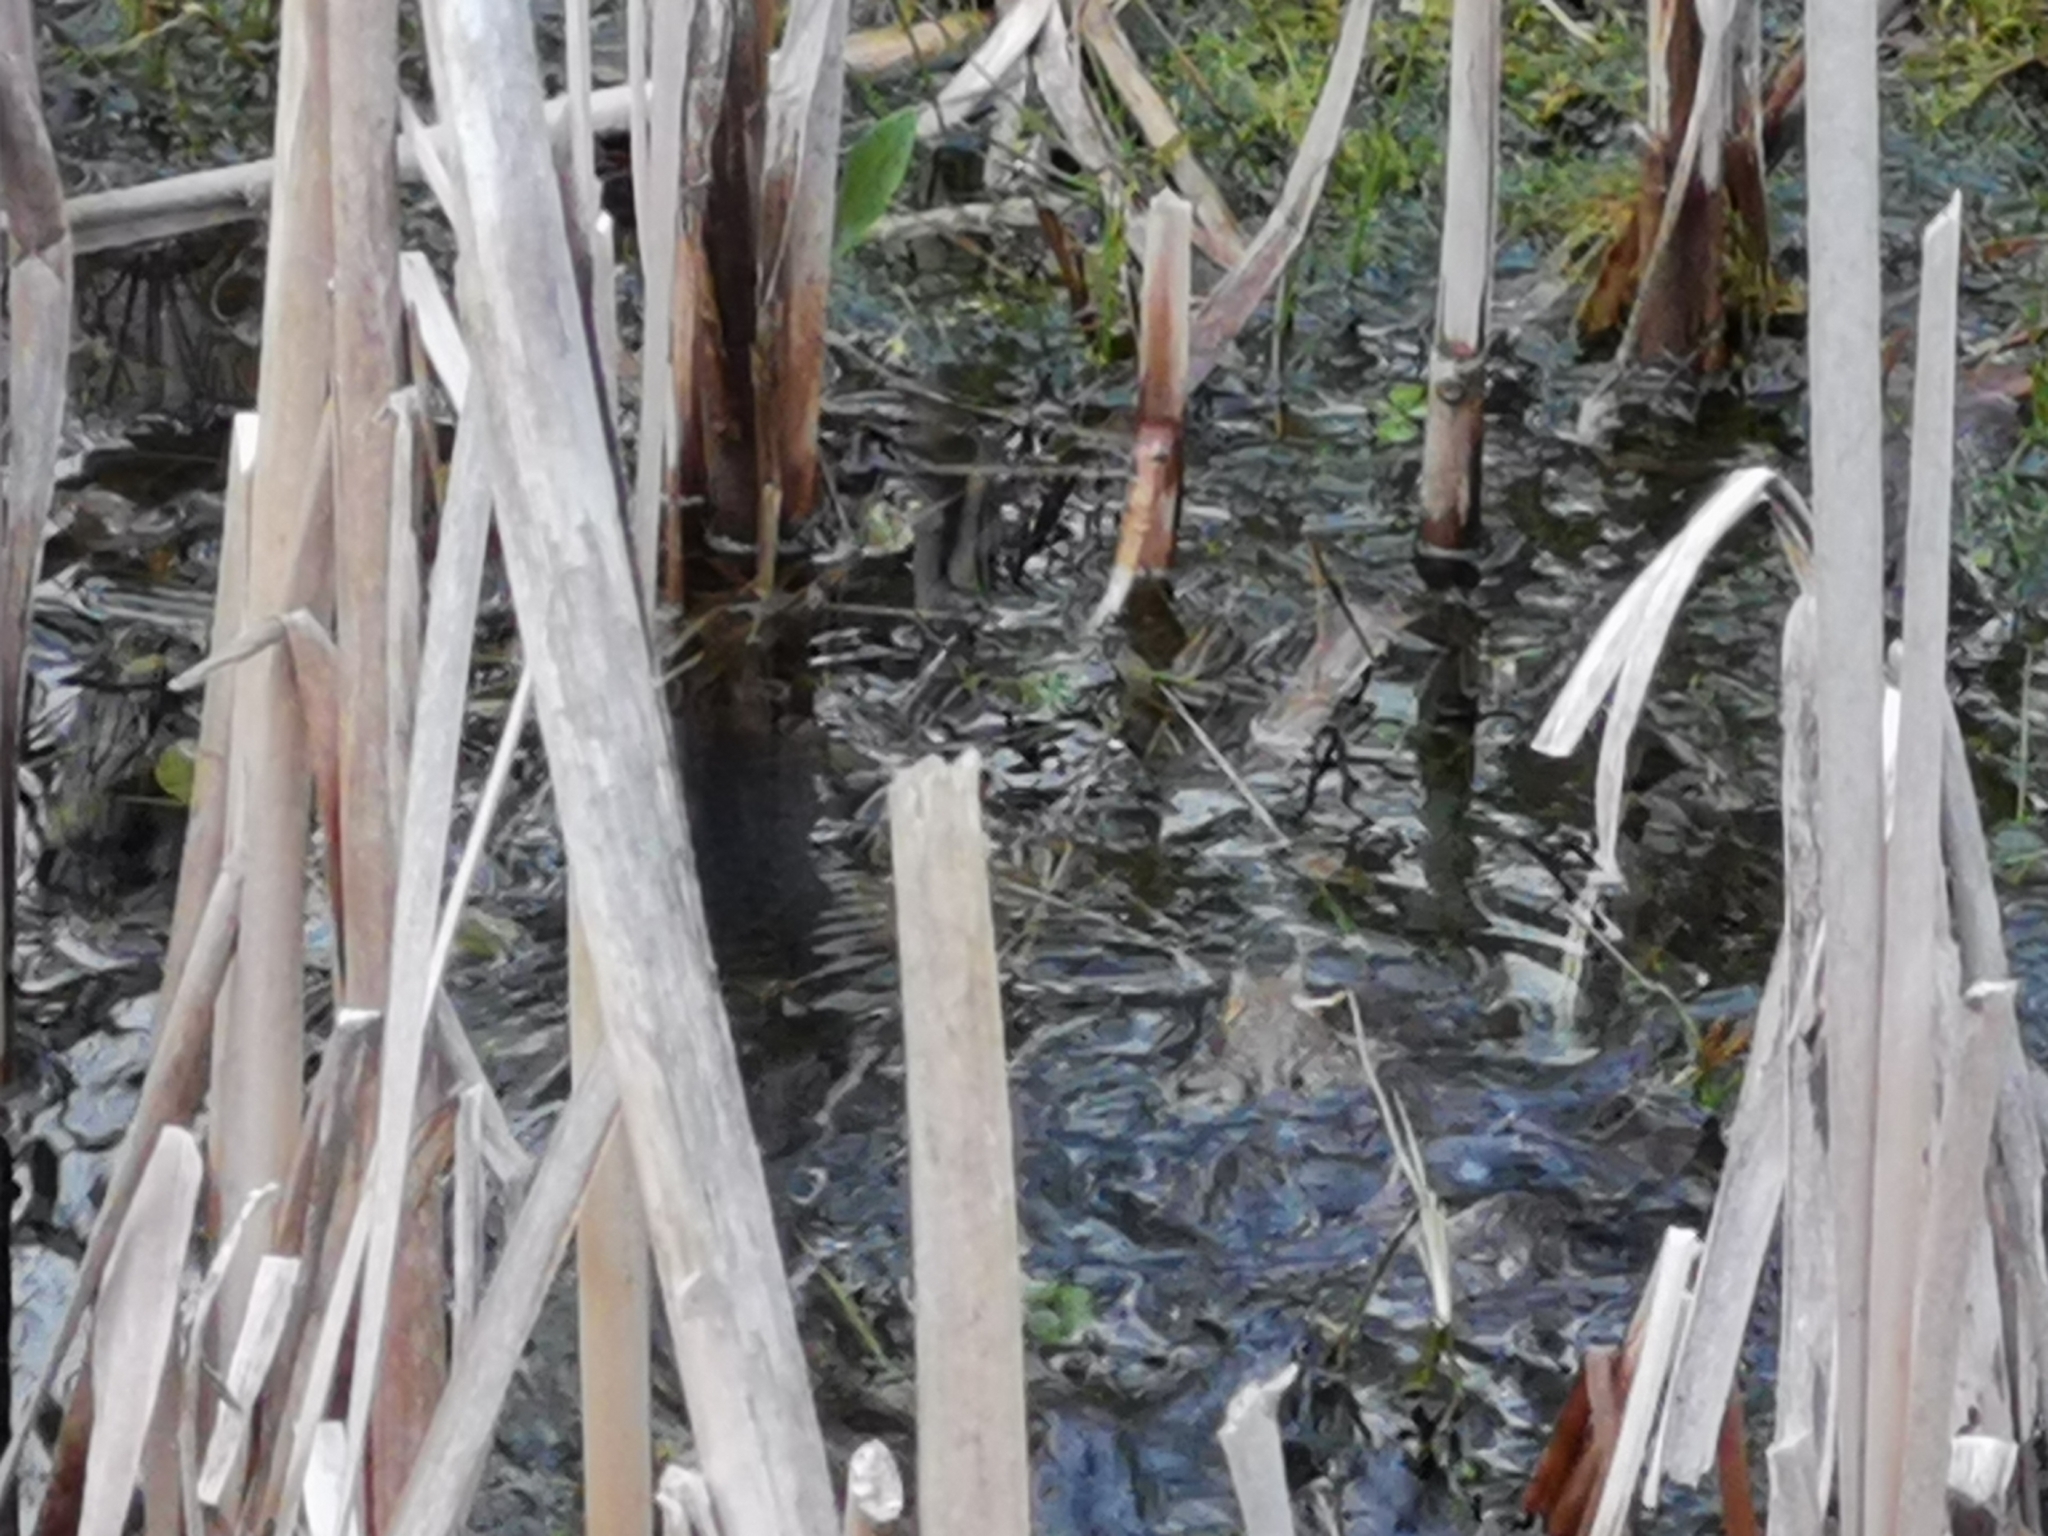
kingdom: Animalia
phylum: Chordata
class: Amphibia
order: Anura
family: Ranidae
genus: Rana
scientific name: Rana temporaria
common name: Common frog
